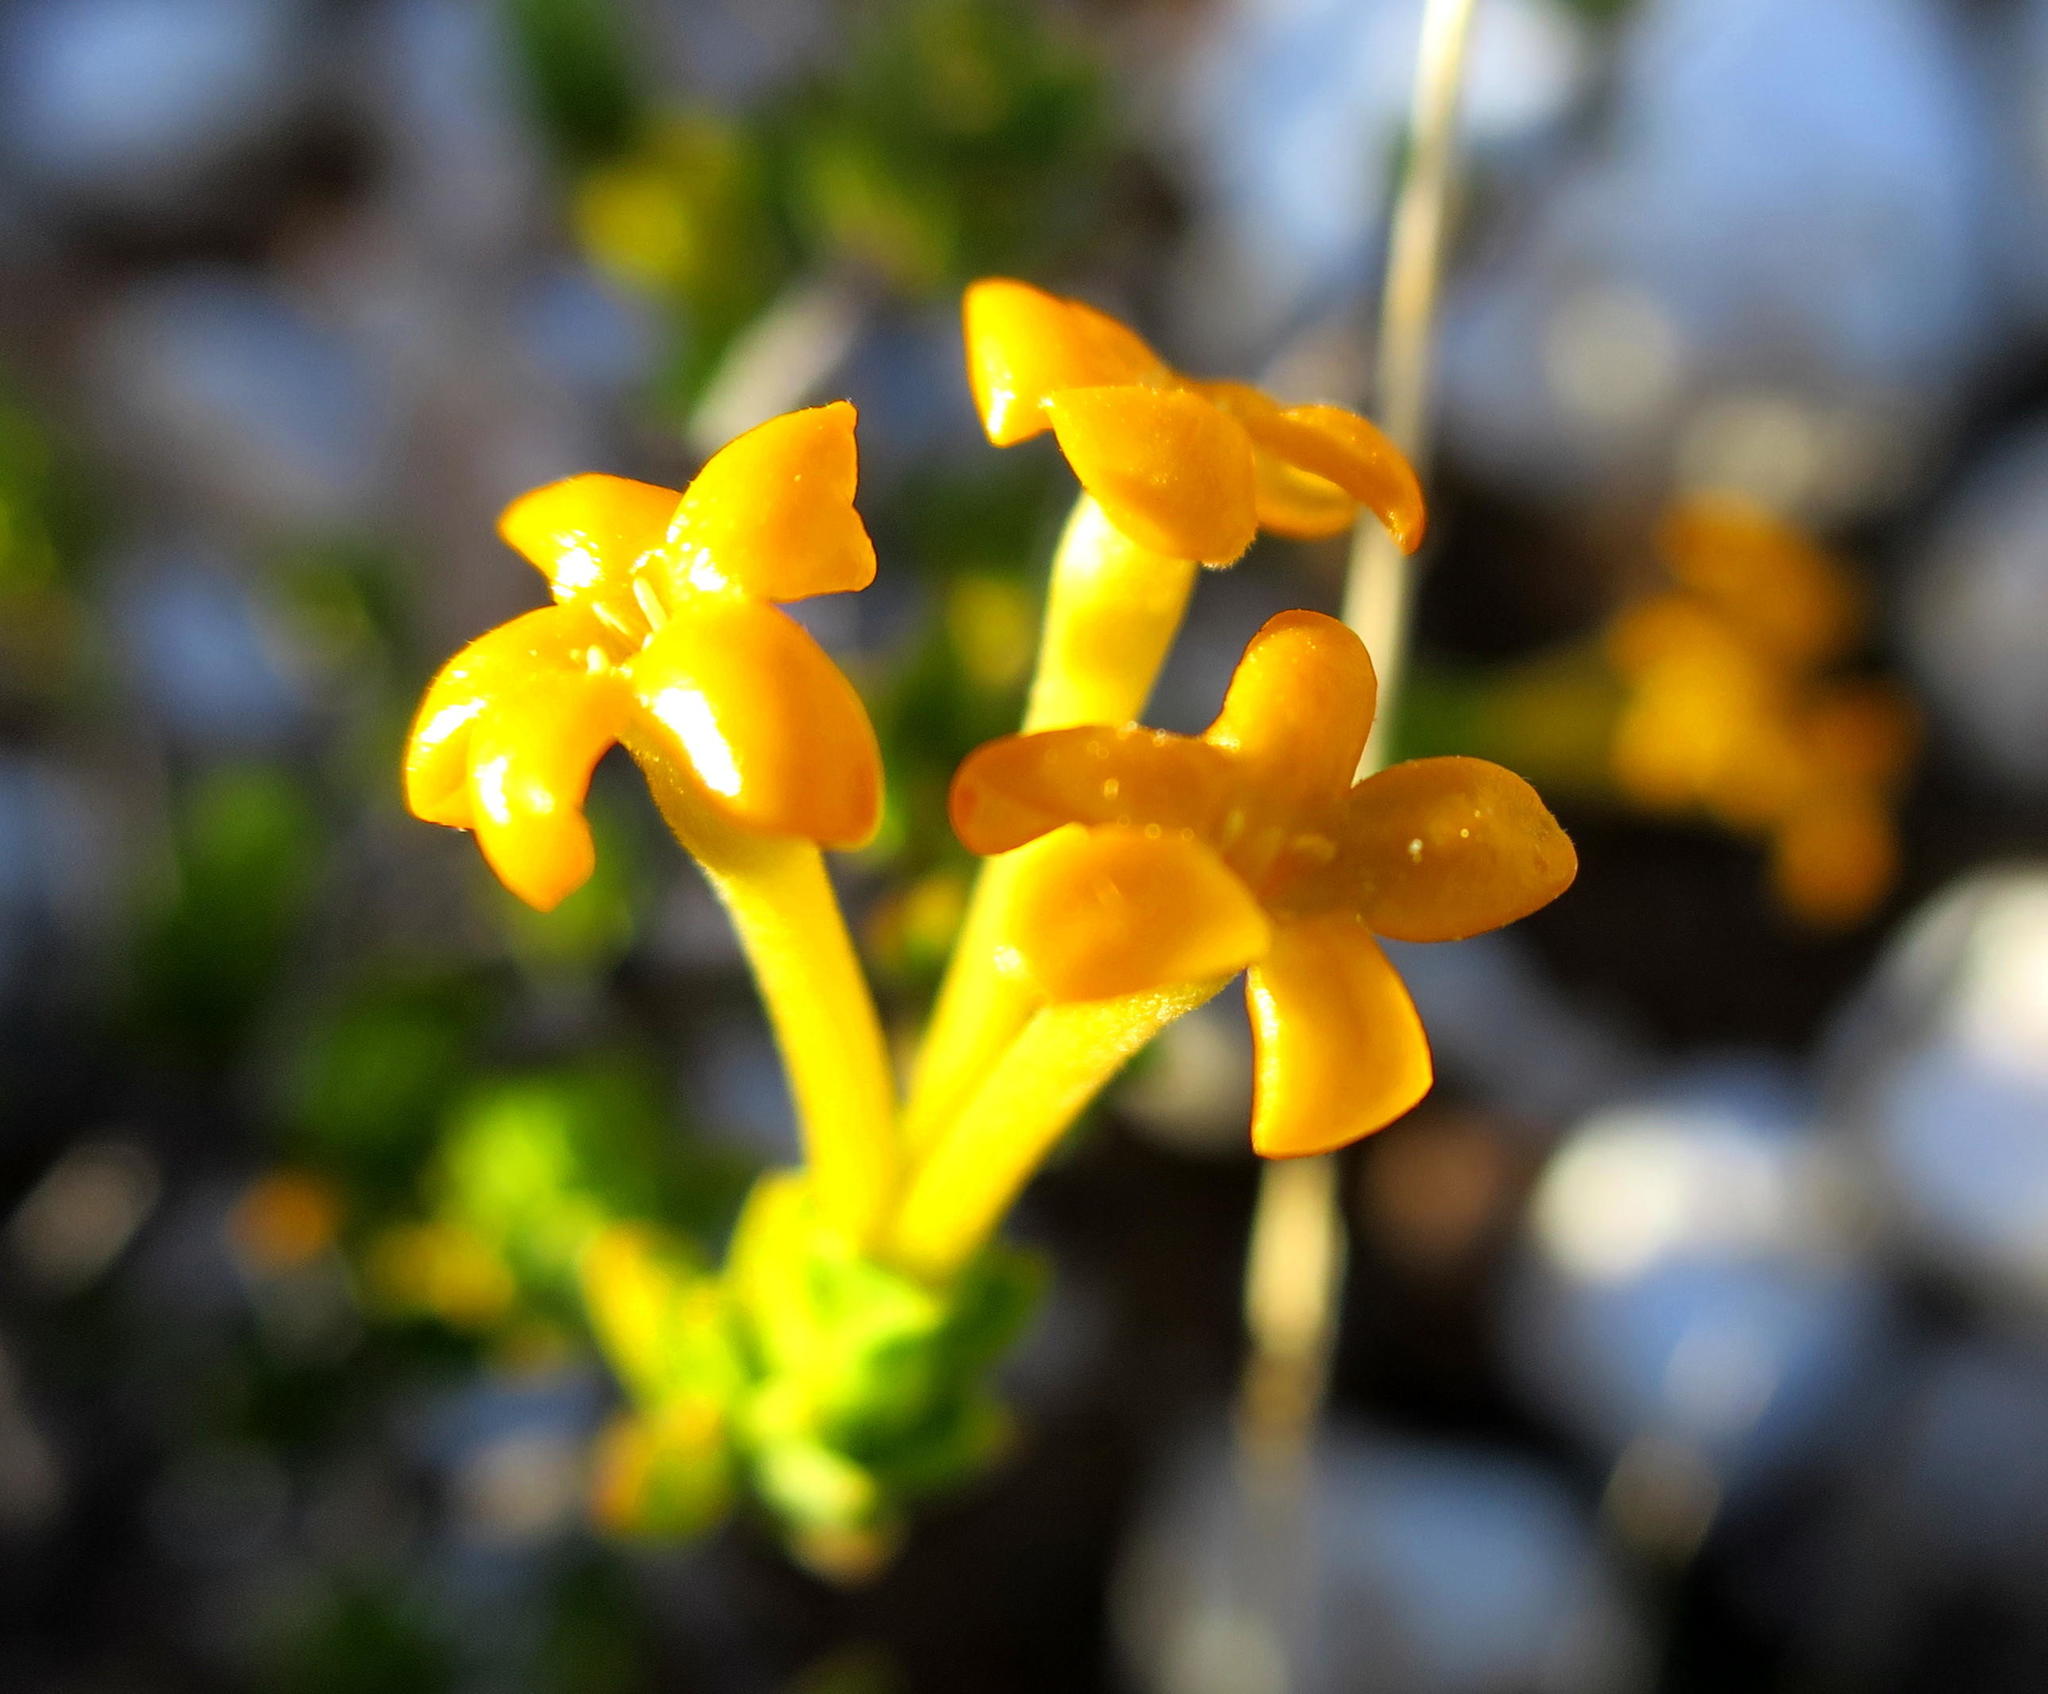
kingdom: Plantae
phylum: Tracheophyta
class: Magnoliopsida
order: Malvales
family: Thymelaeaceae
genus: Gnidia
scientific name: Gnidia deserticola
